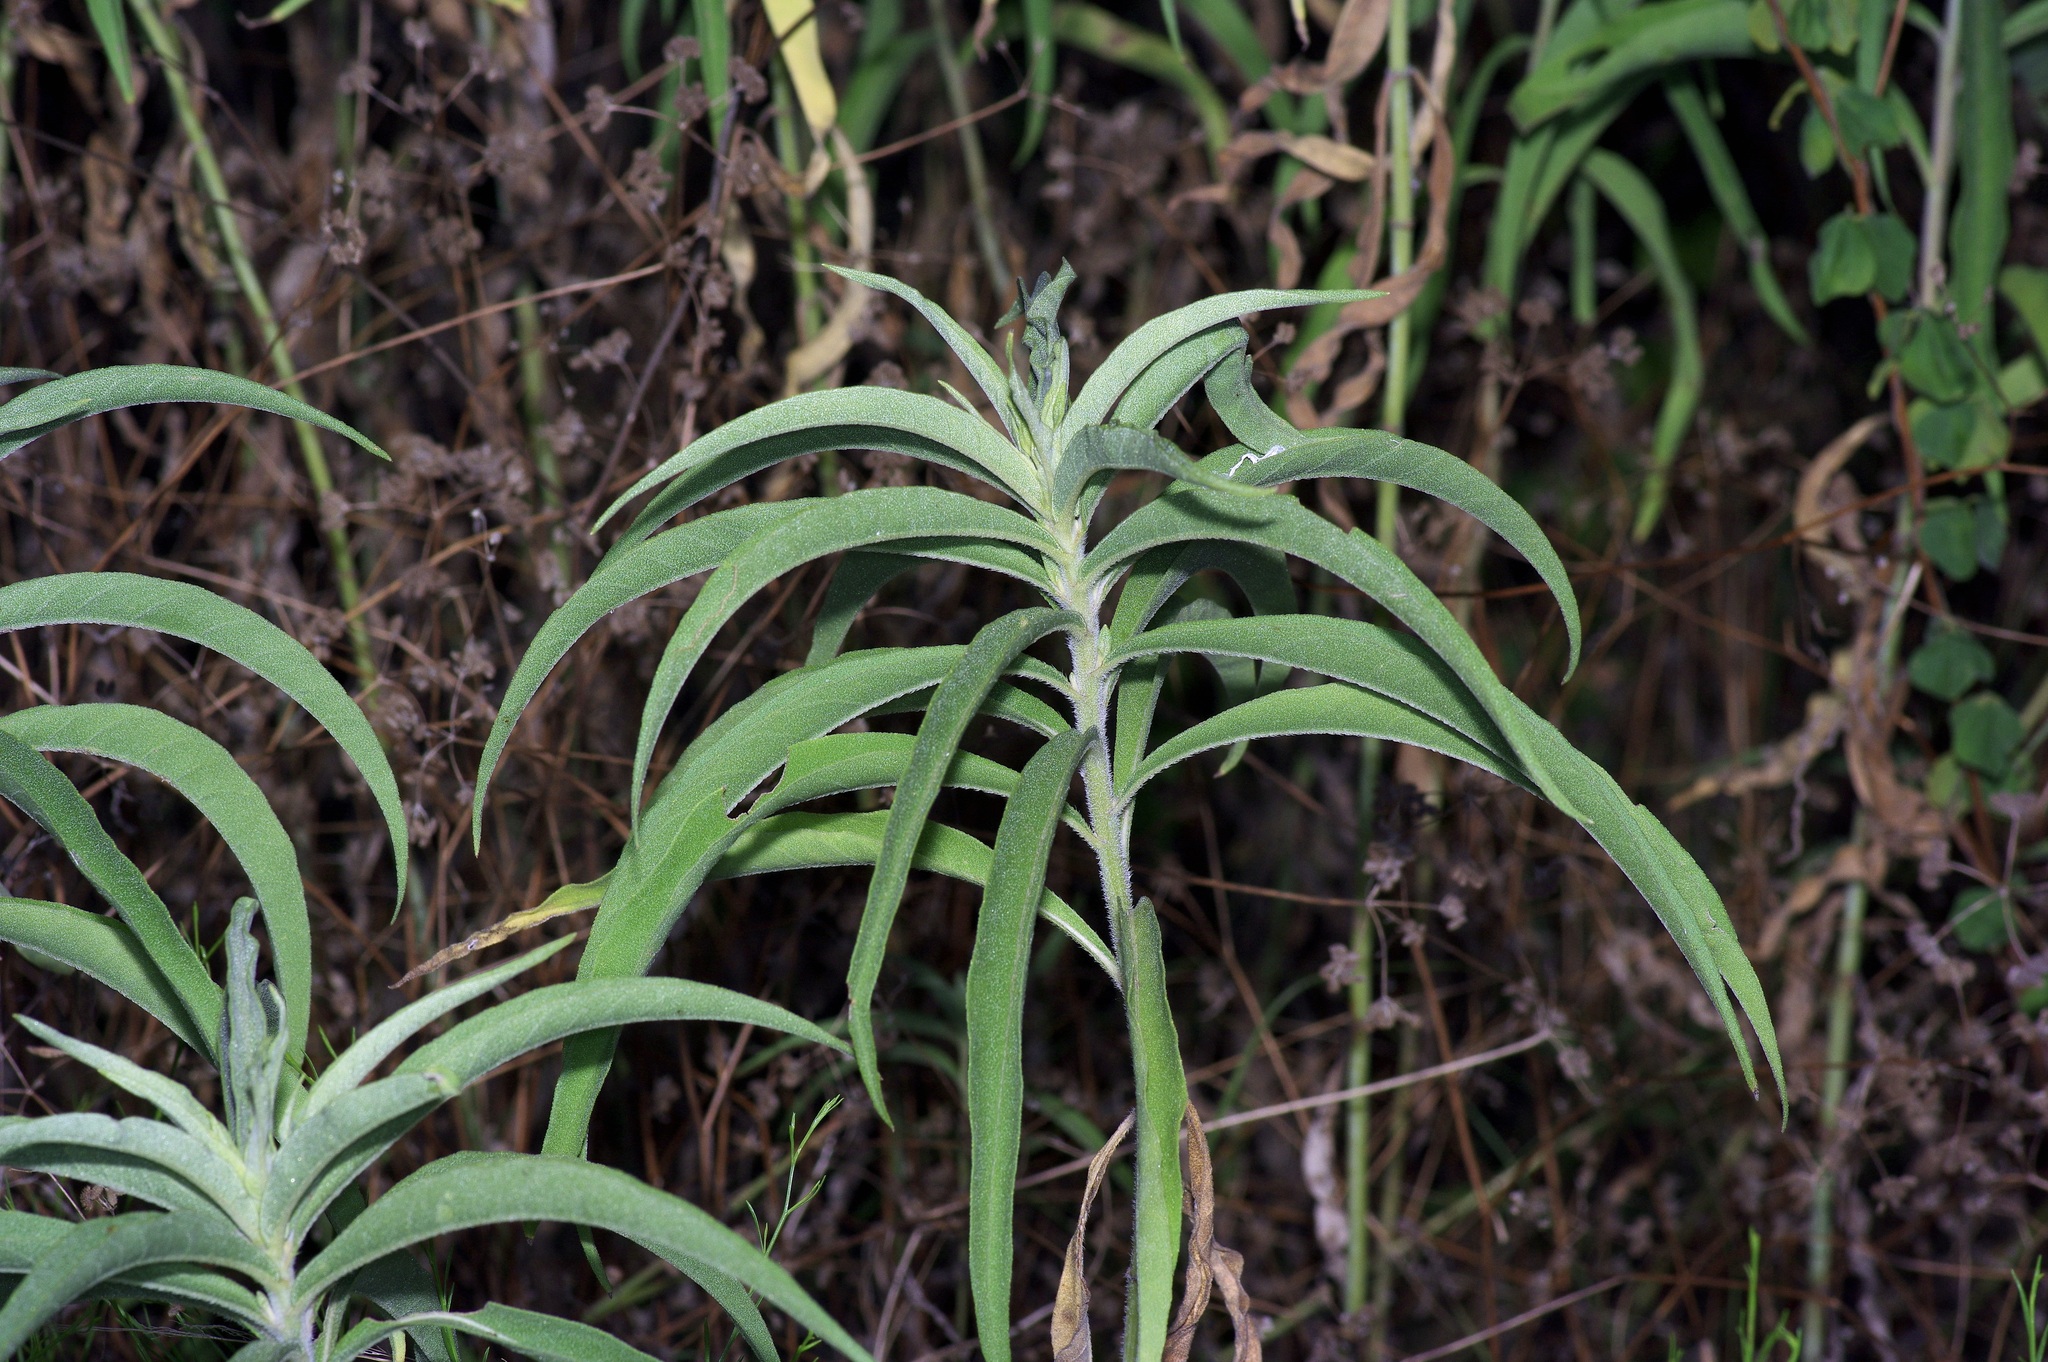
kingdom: Plantae
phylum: Tracheophyta
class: Magnoliopsida
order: Asterales
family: Asteraceae
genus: Helianthus
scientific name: Helianthus maximiliani
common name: Maximilian's sunflower
